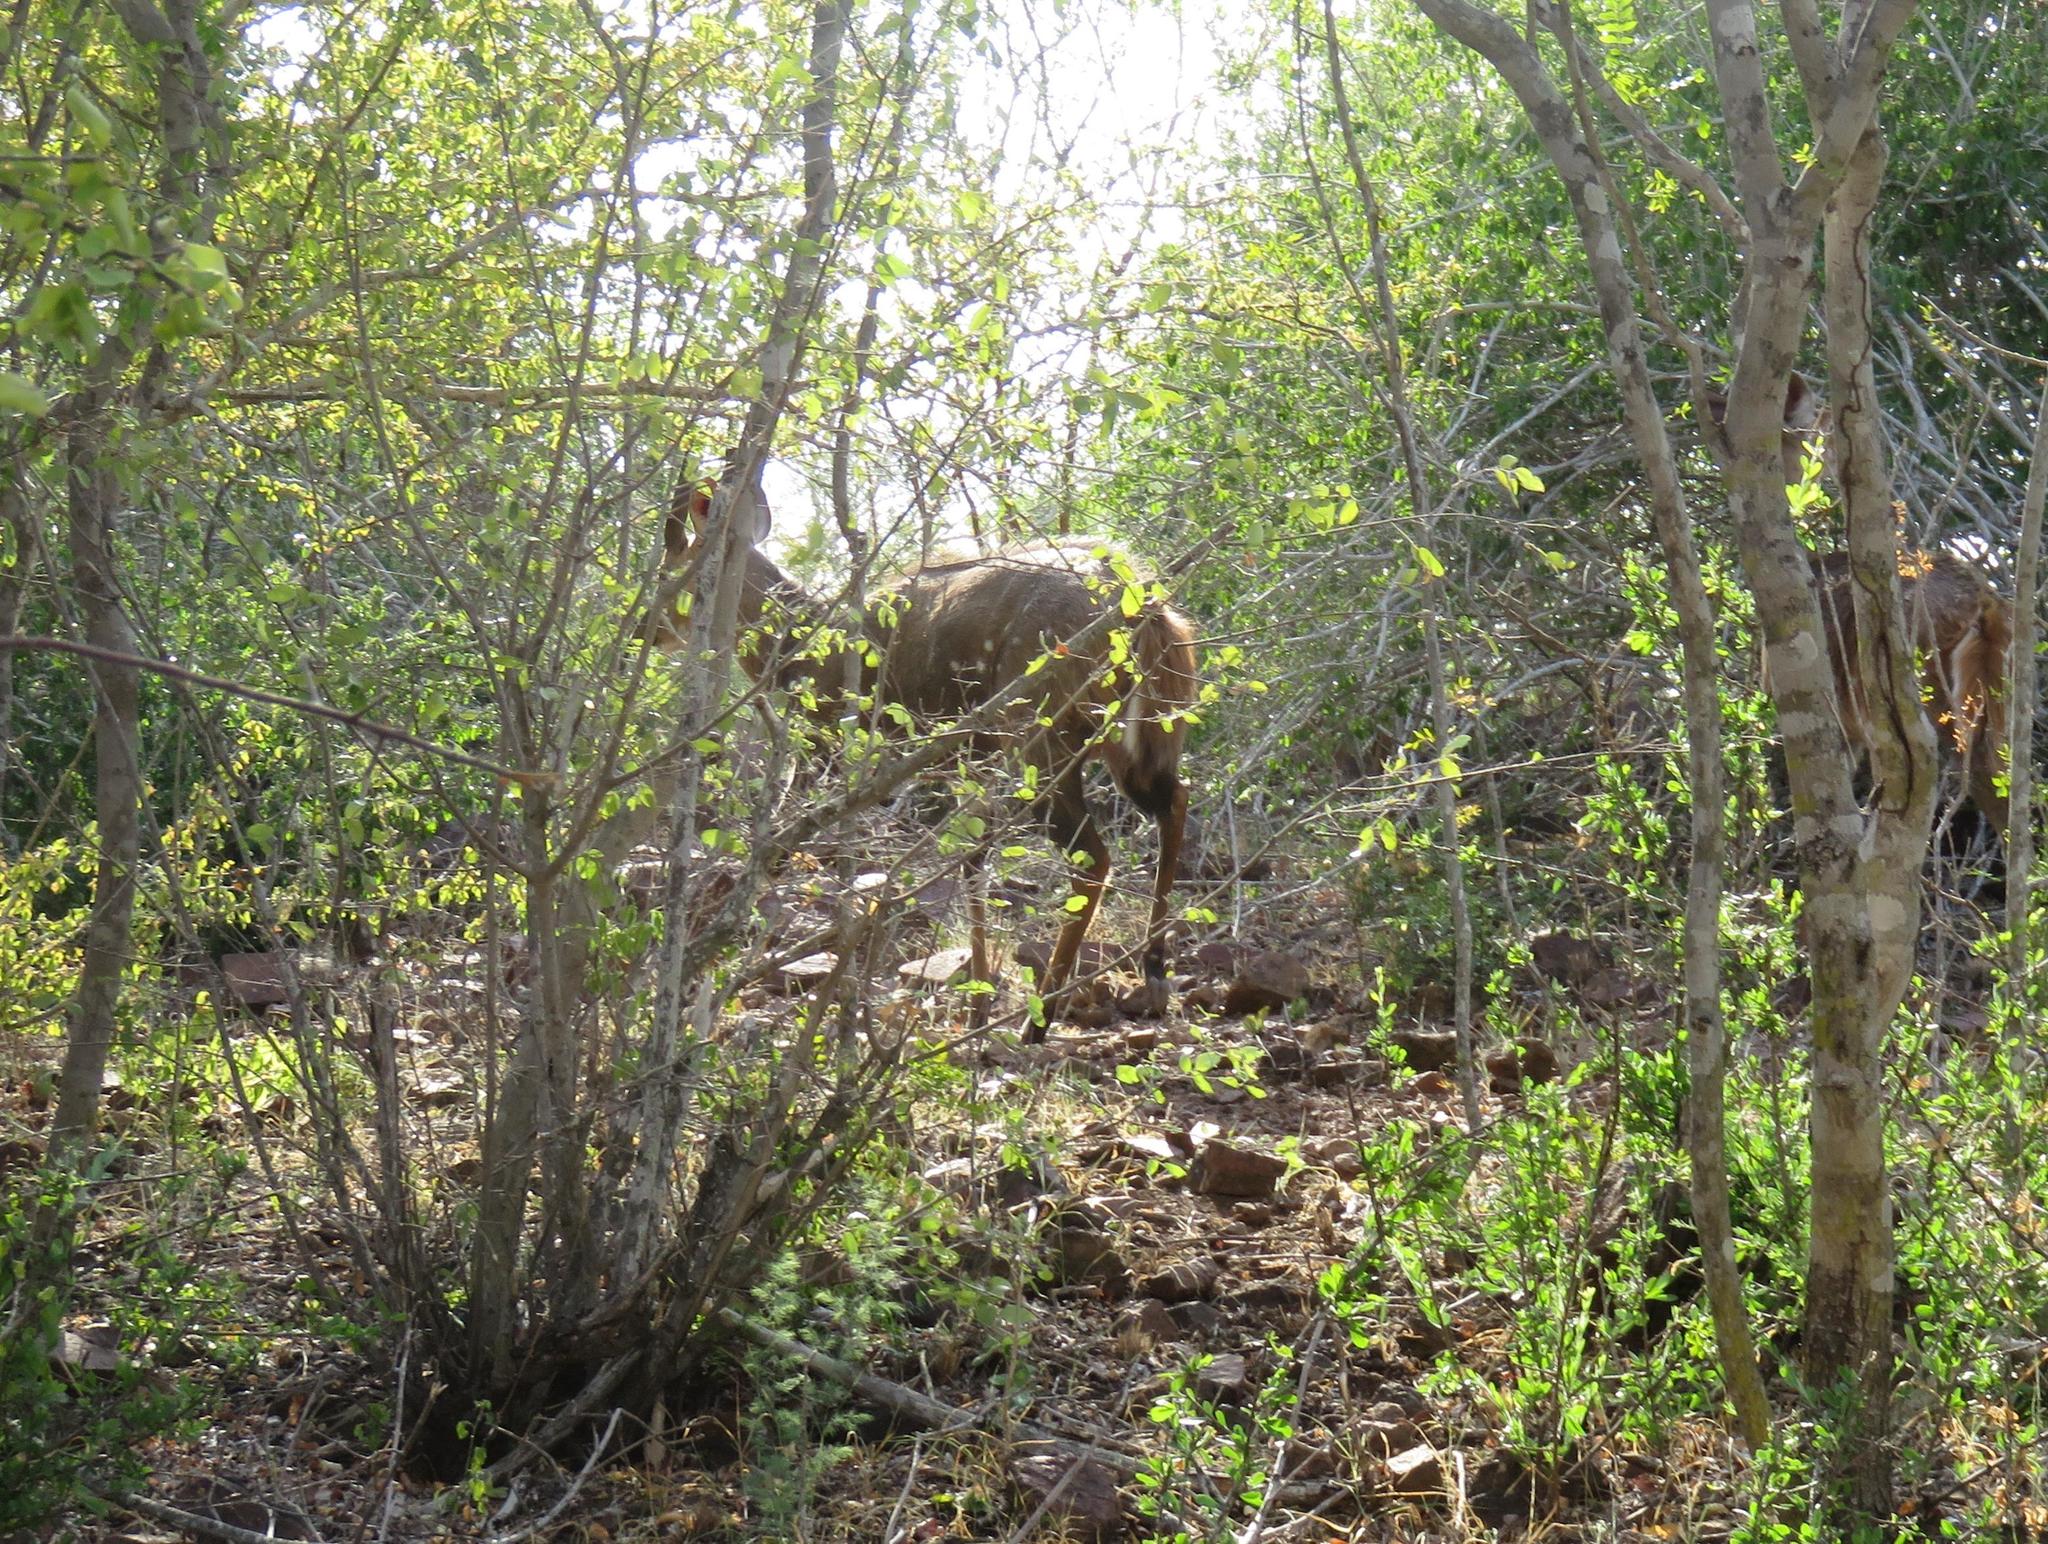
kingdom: Animalia
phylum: Chordata
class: Mammalia
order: Artiodactyla
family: Bovidae
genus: Tragelaphus
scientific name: Tragelaphus scriptus
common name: Bushbuck
